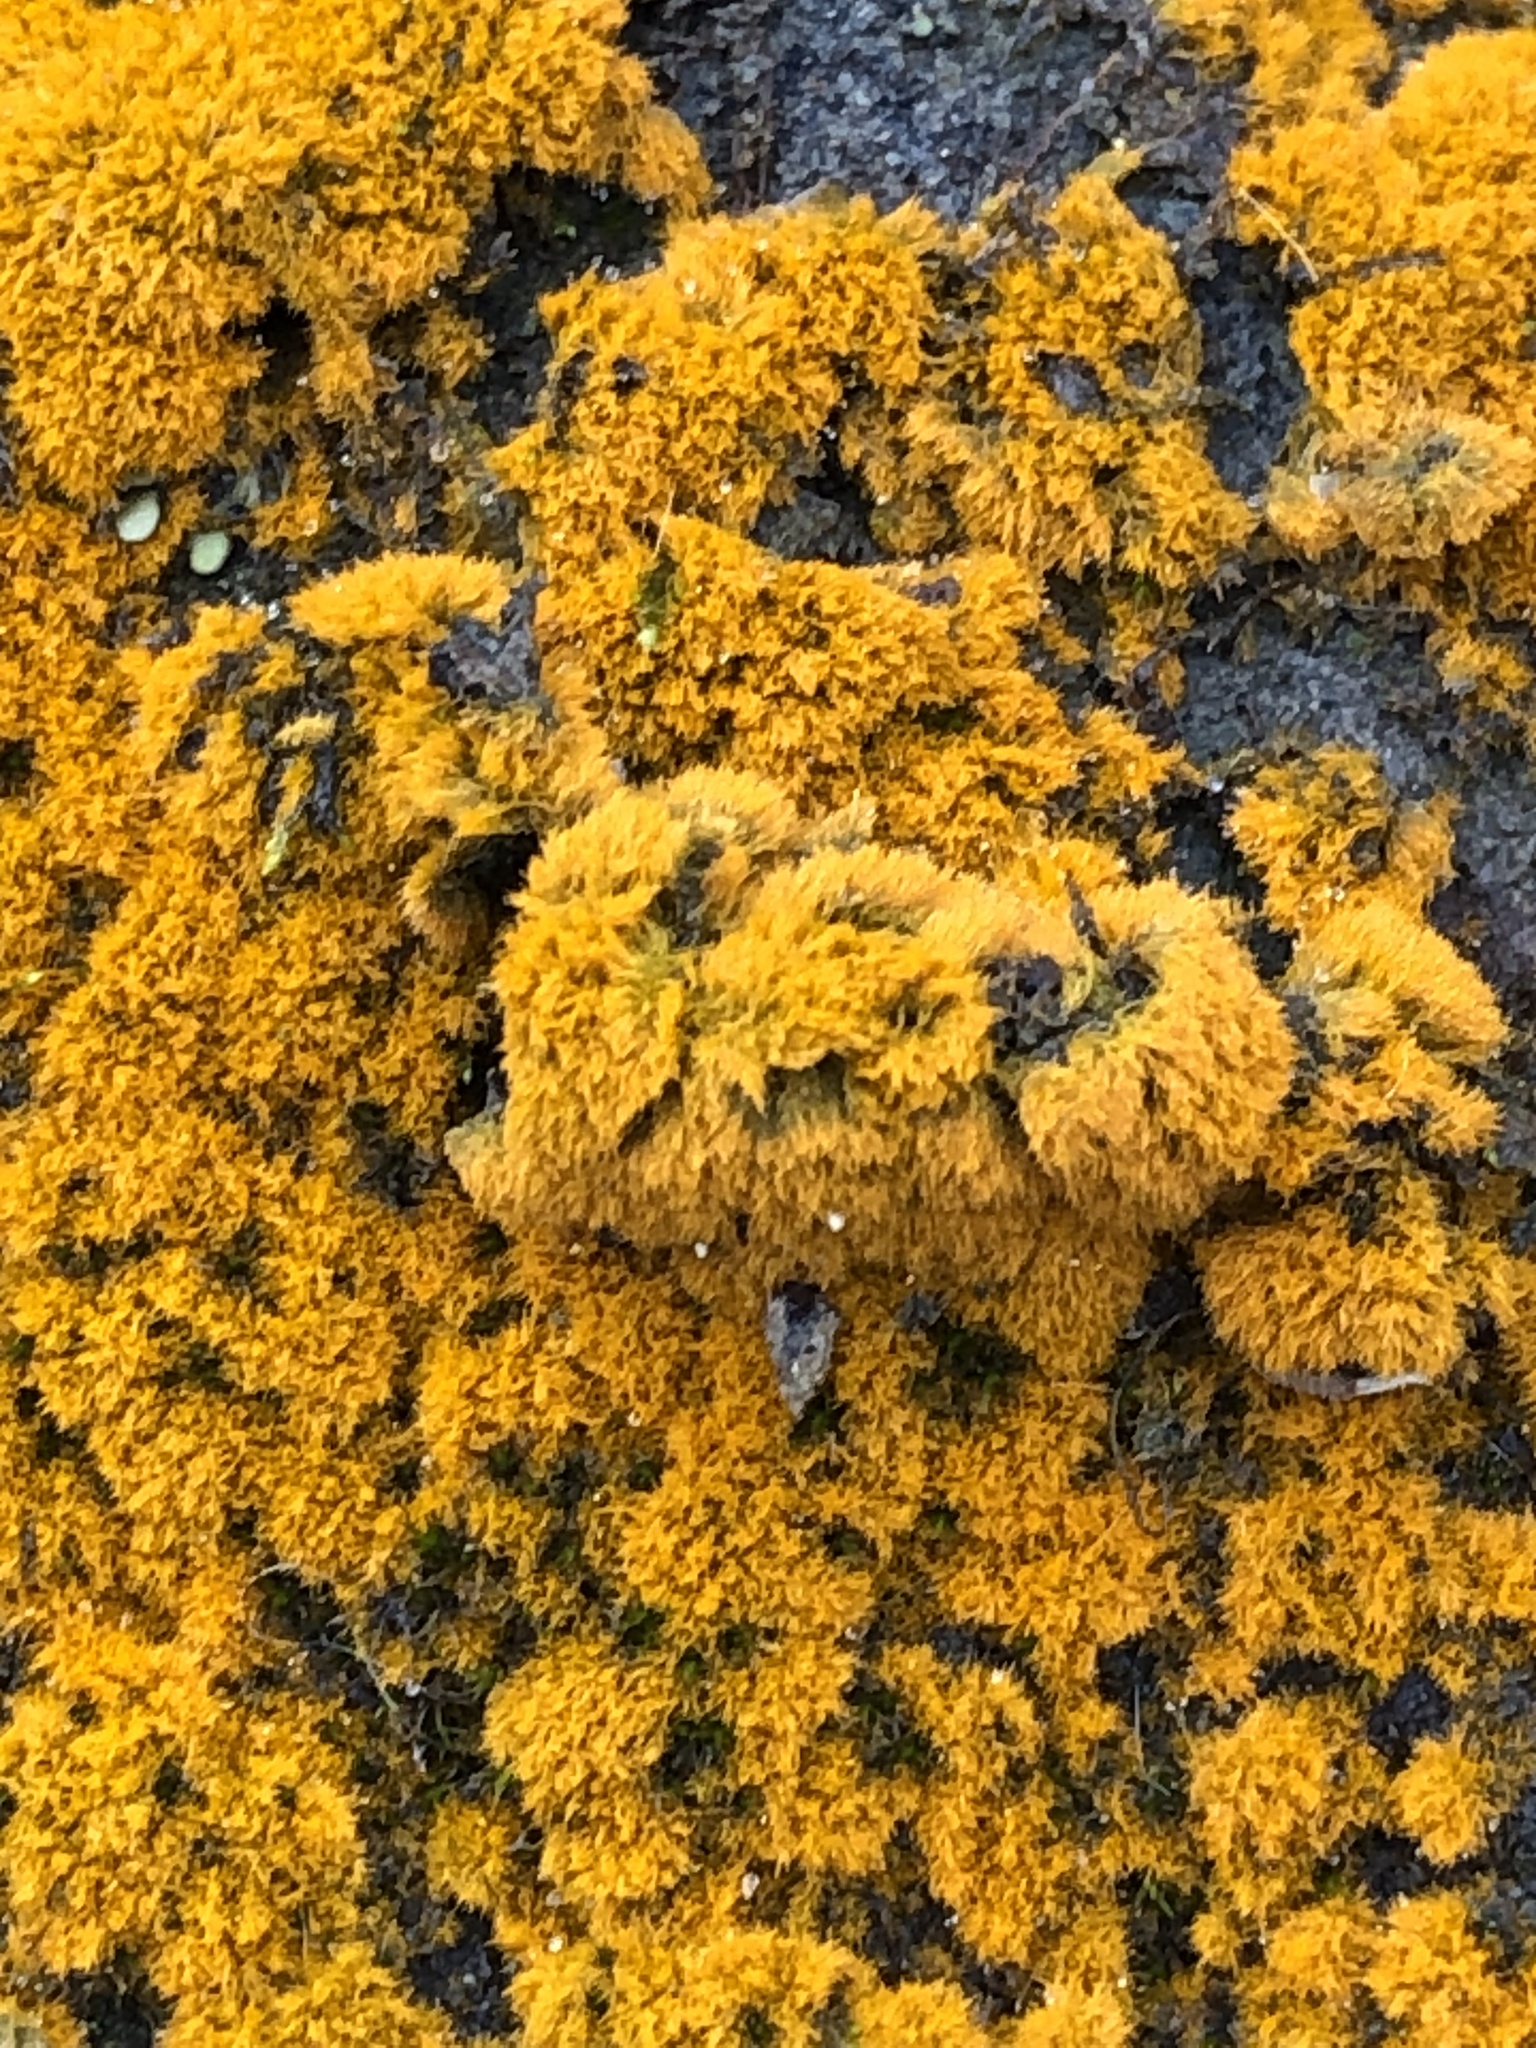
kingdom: Plantae
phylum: Chlorophyta
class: Ulvophyceae
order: Trentepohliales
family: Trentepohliaceae
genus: Trentepohlia
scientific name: Trentepohlia aurea
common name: Orange rock hair
